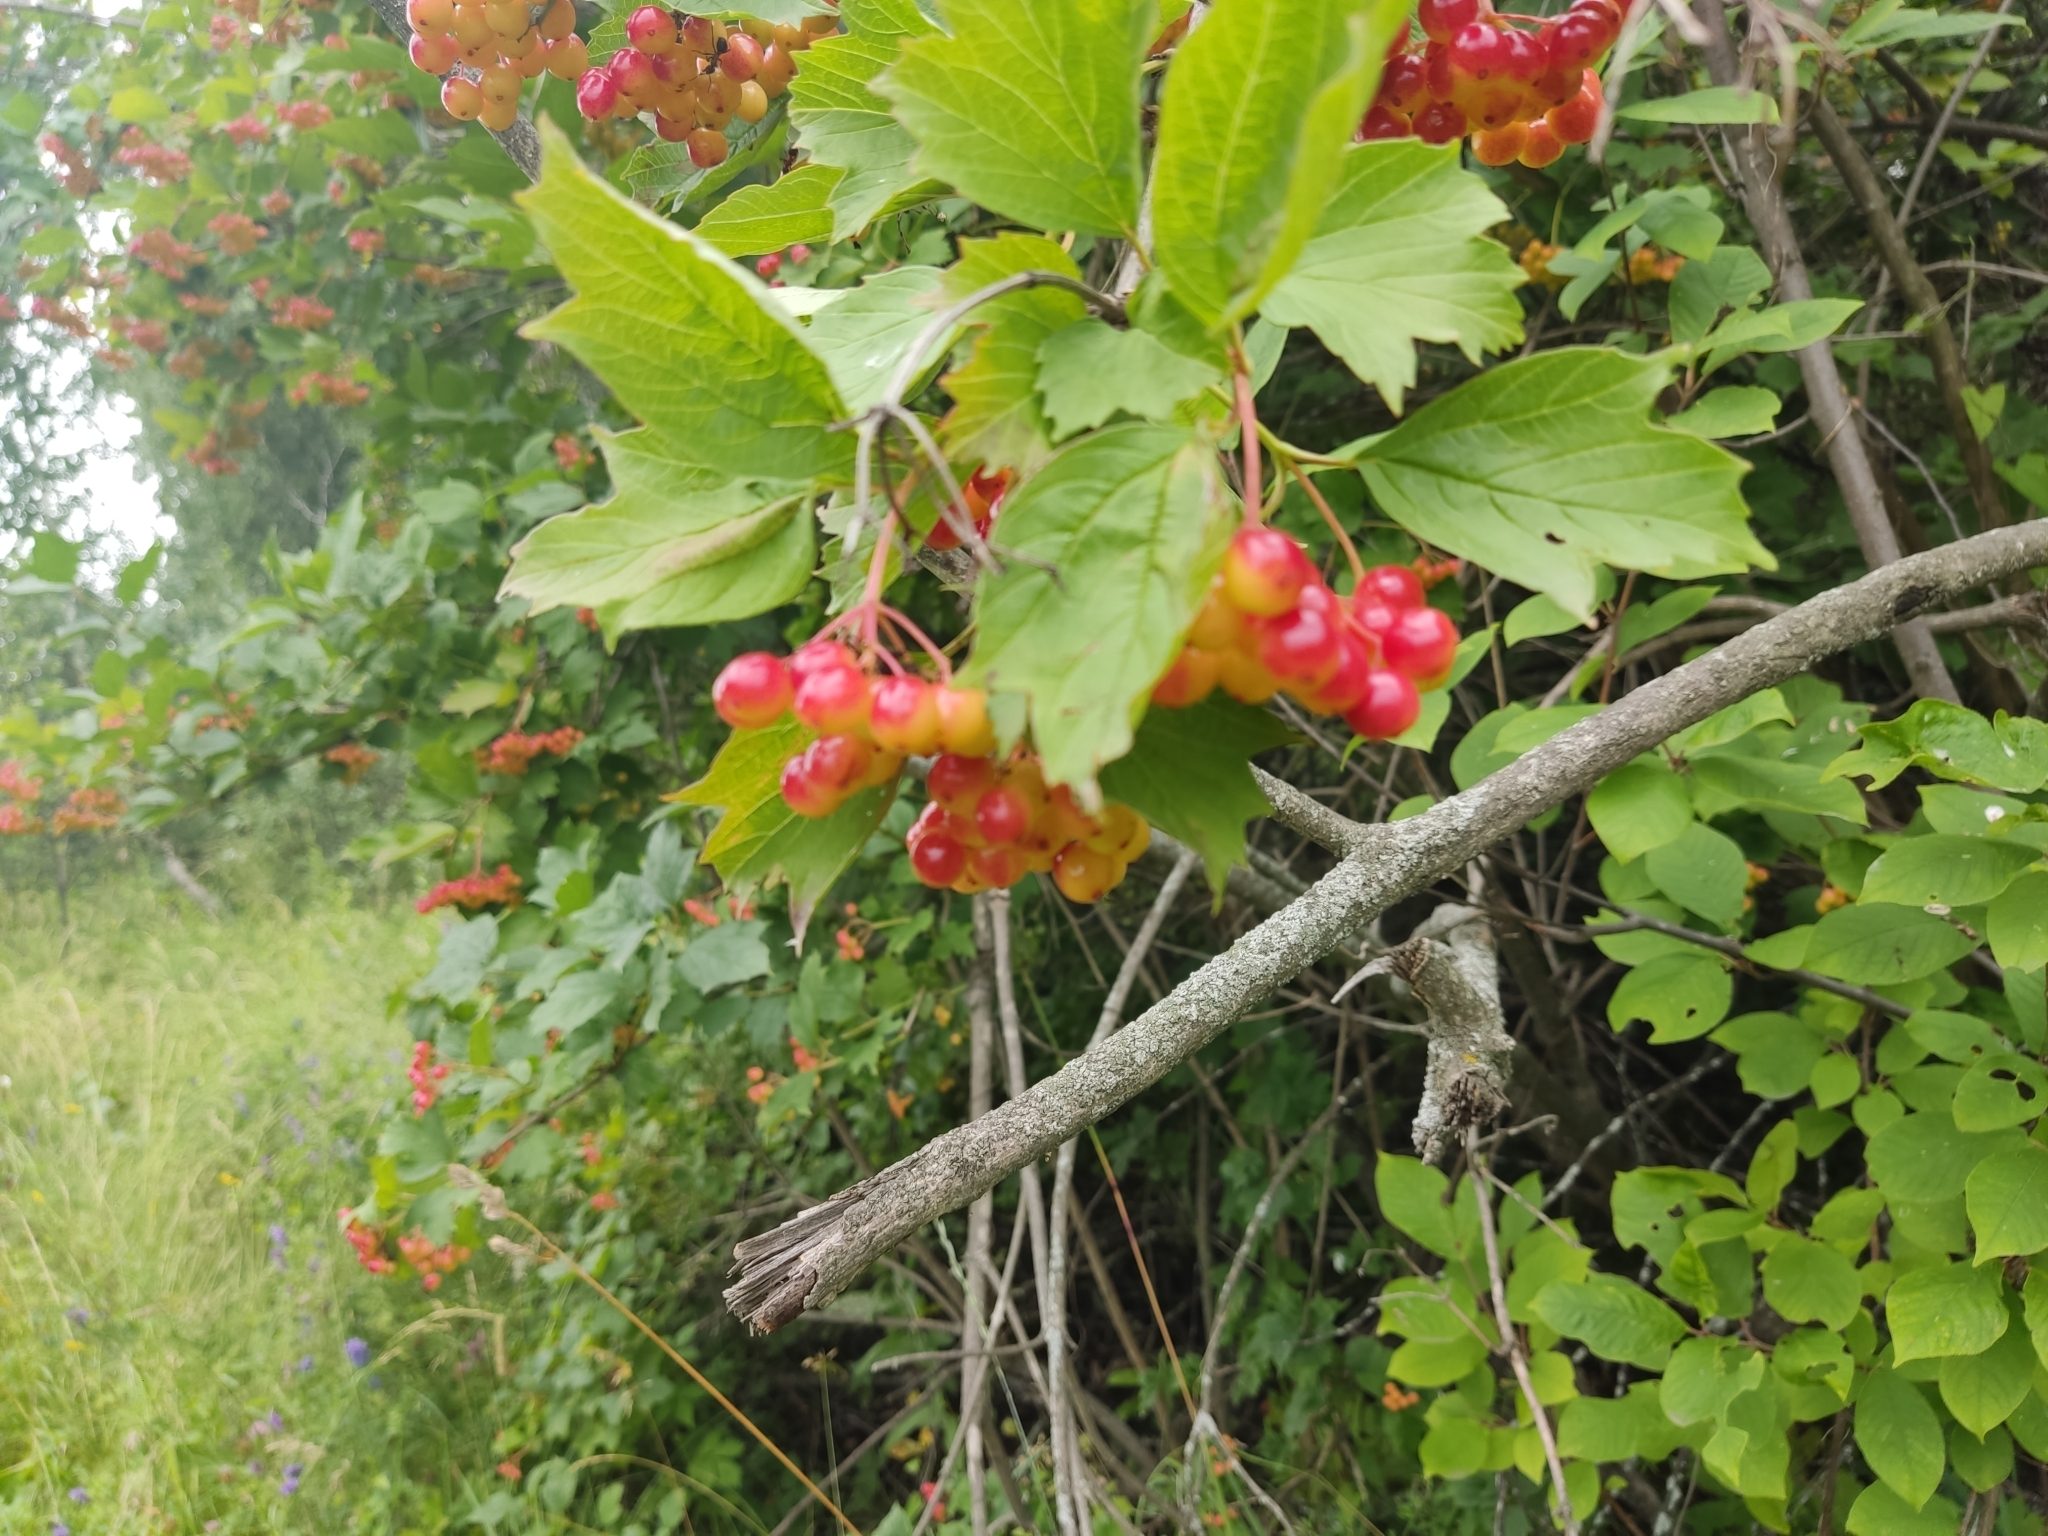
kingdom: Plantae
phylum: Tracheophyta
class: Magnoliopsida
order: Dipsacales
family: Viburnaceae
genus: Viburnum
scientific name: Viburnum opulus
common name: Guelder-rose
